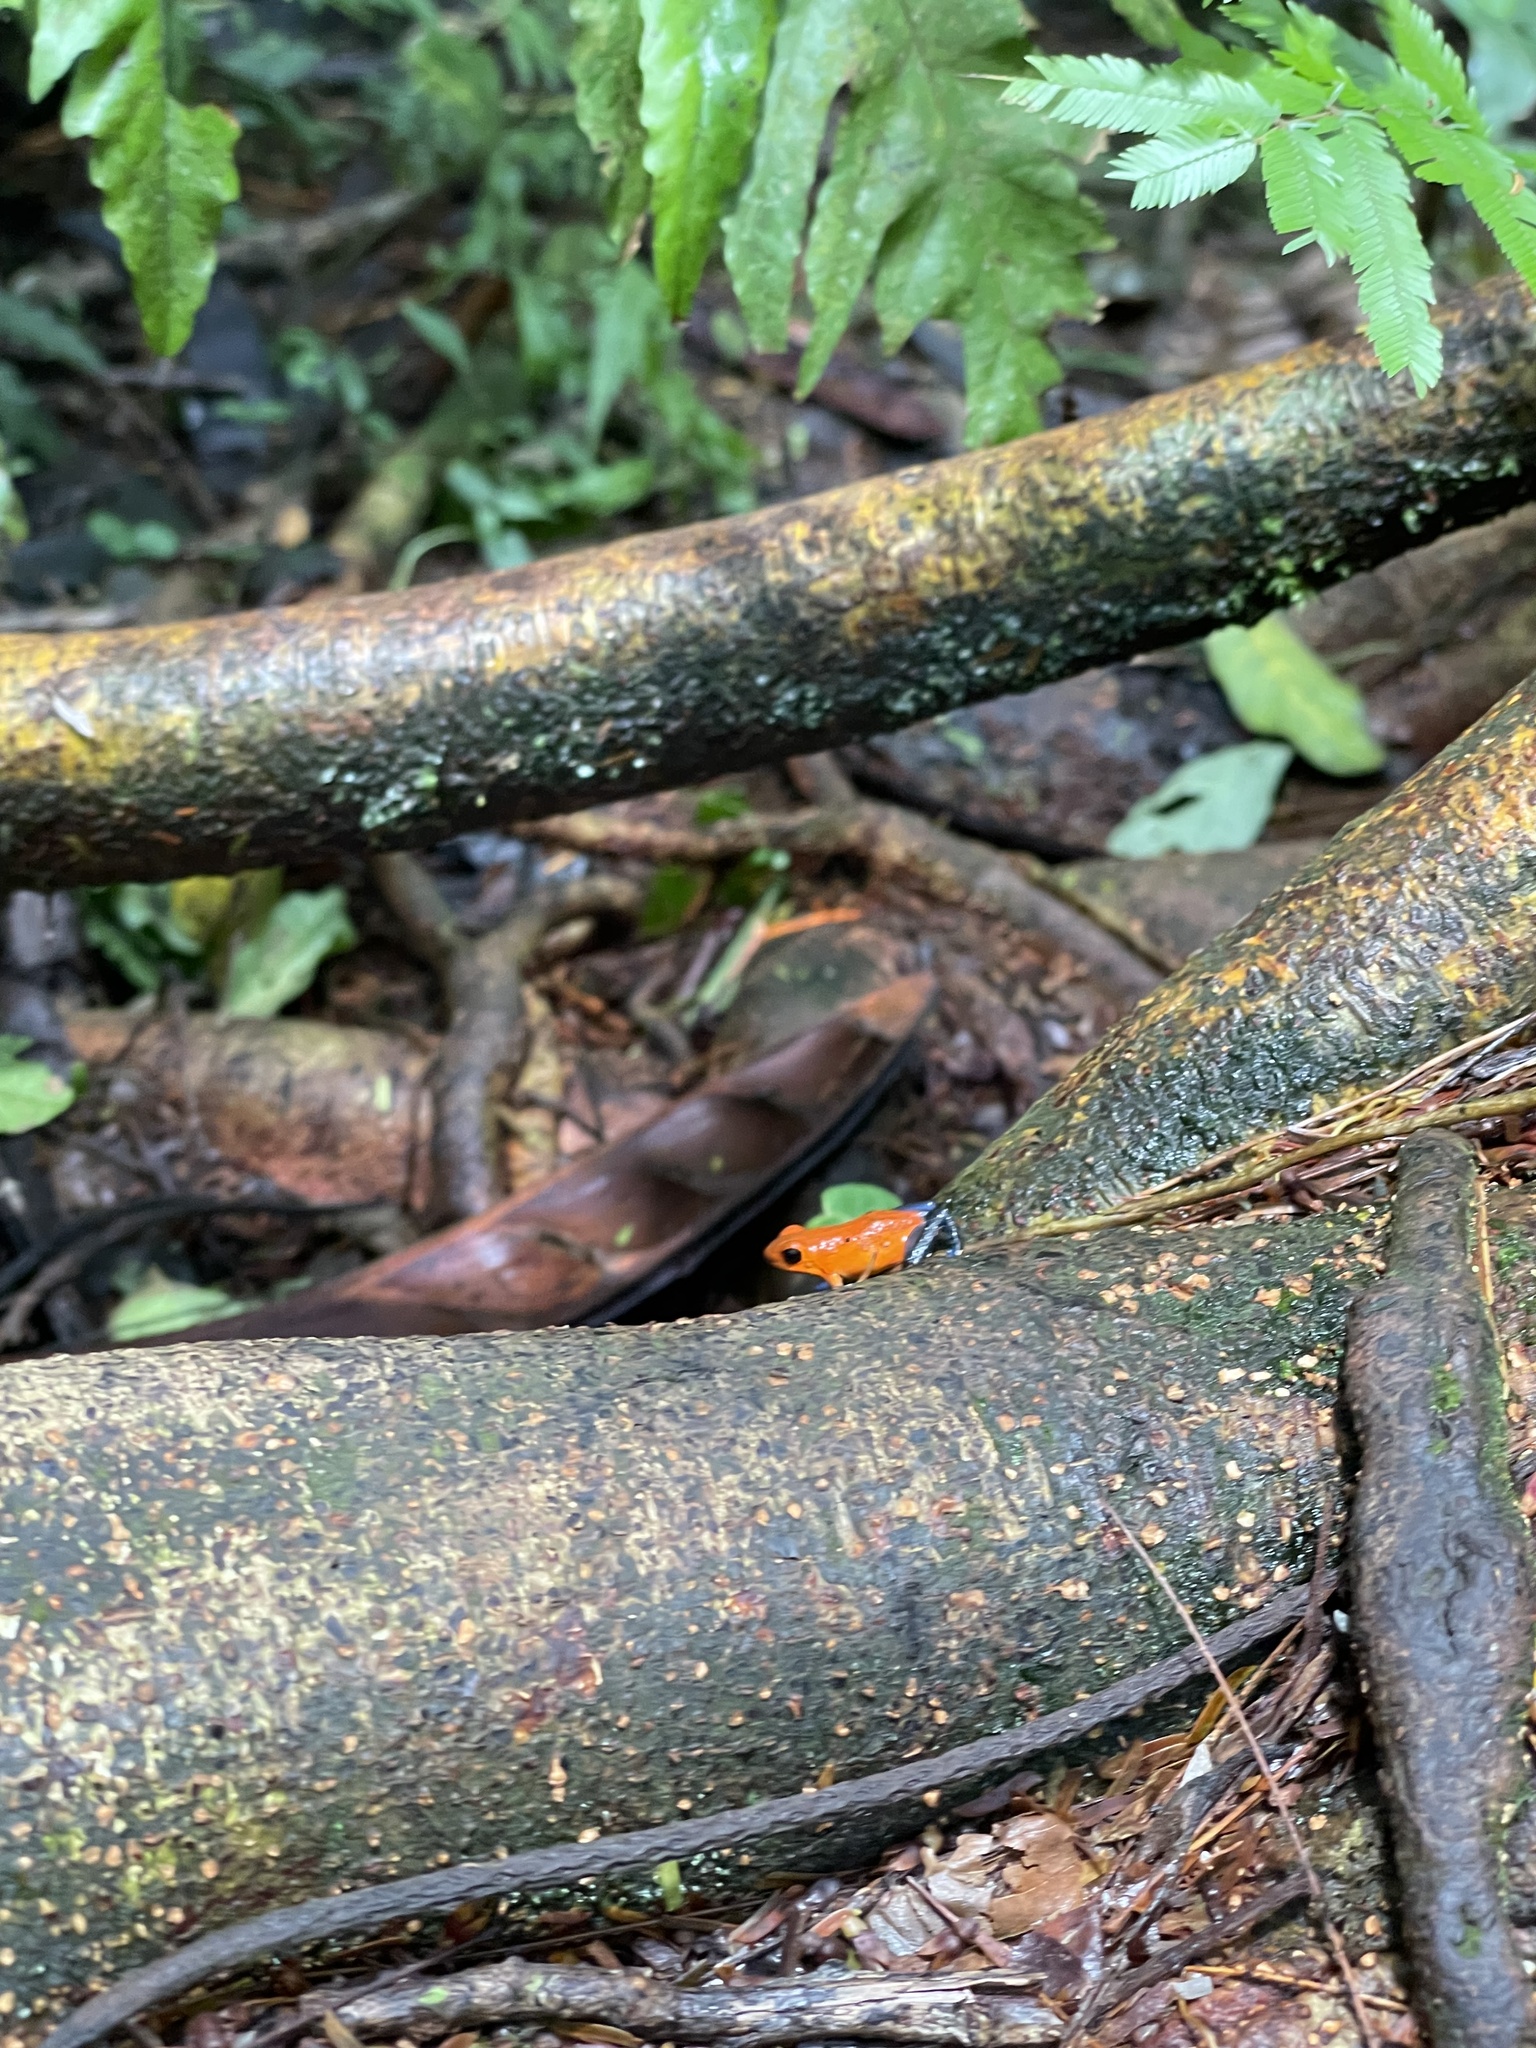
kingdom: Animalia
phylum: Chordata
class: Amphibia
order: Anura
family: Dendrobatidae
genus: Oophaga
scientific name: Oophaga pumilio
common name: Flaming poison frog
